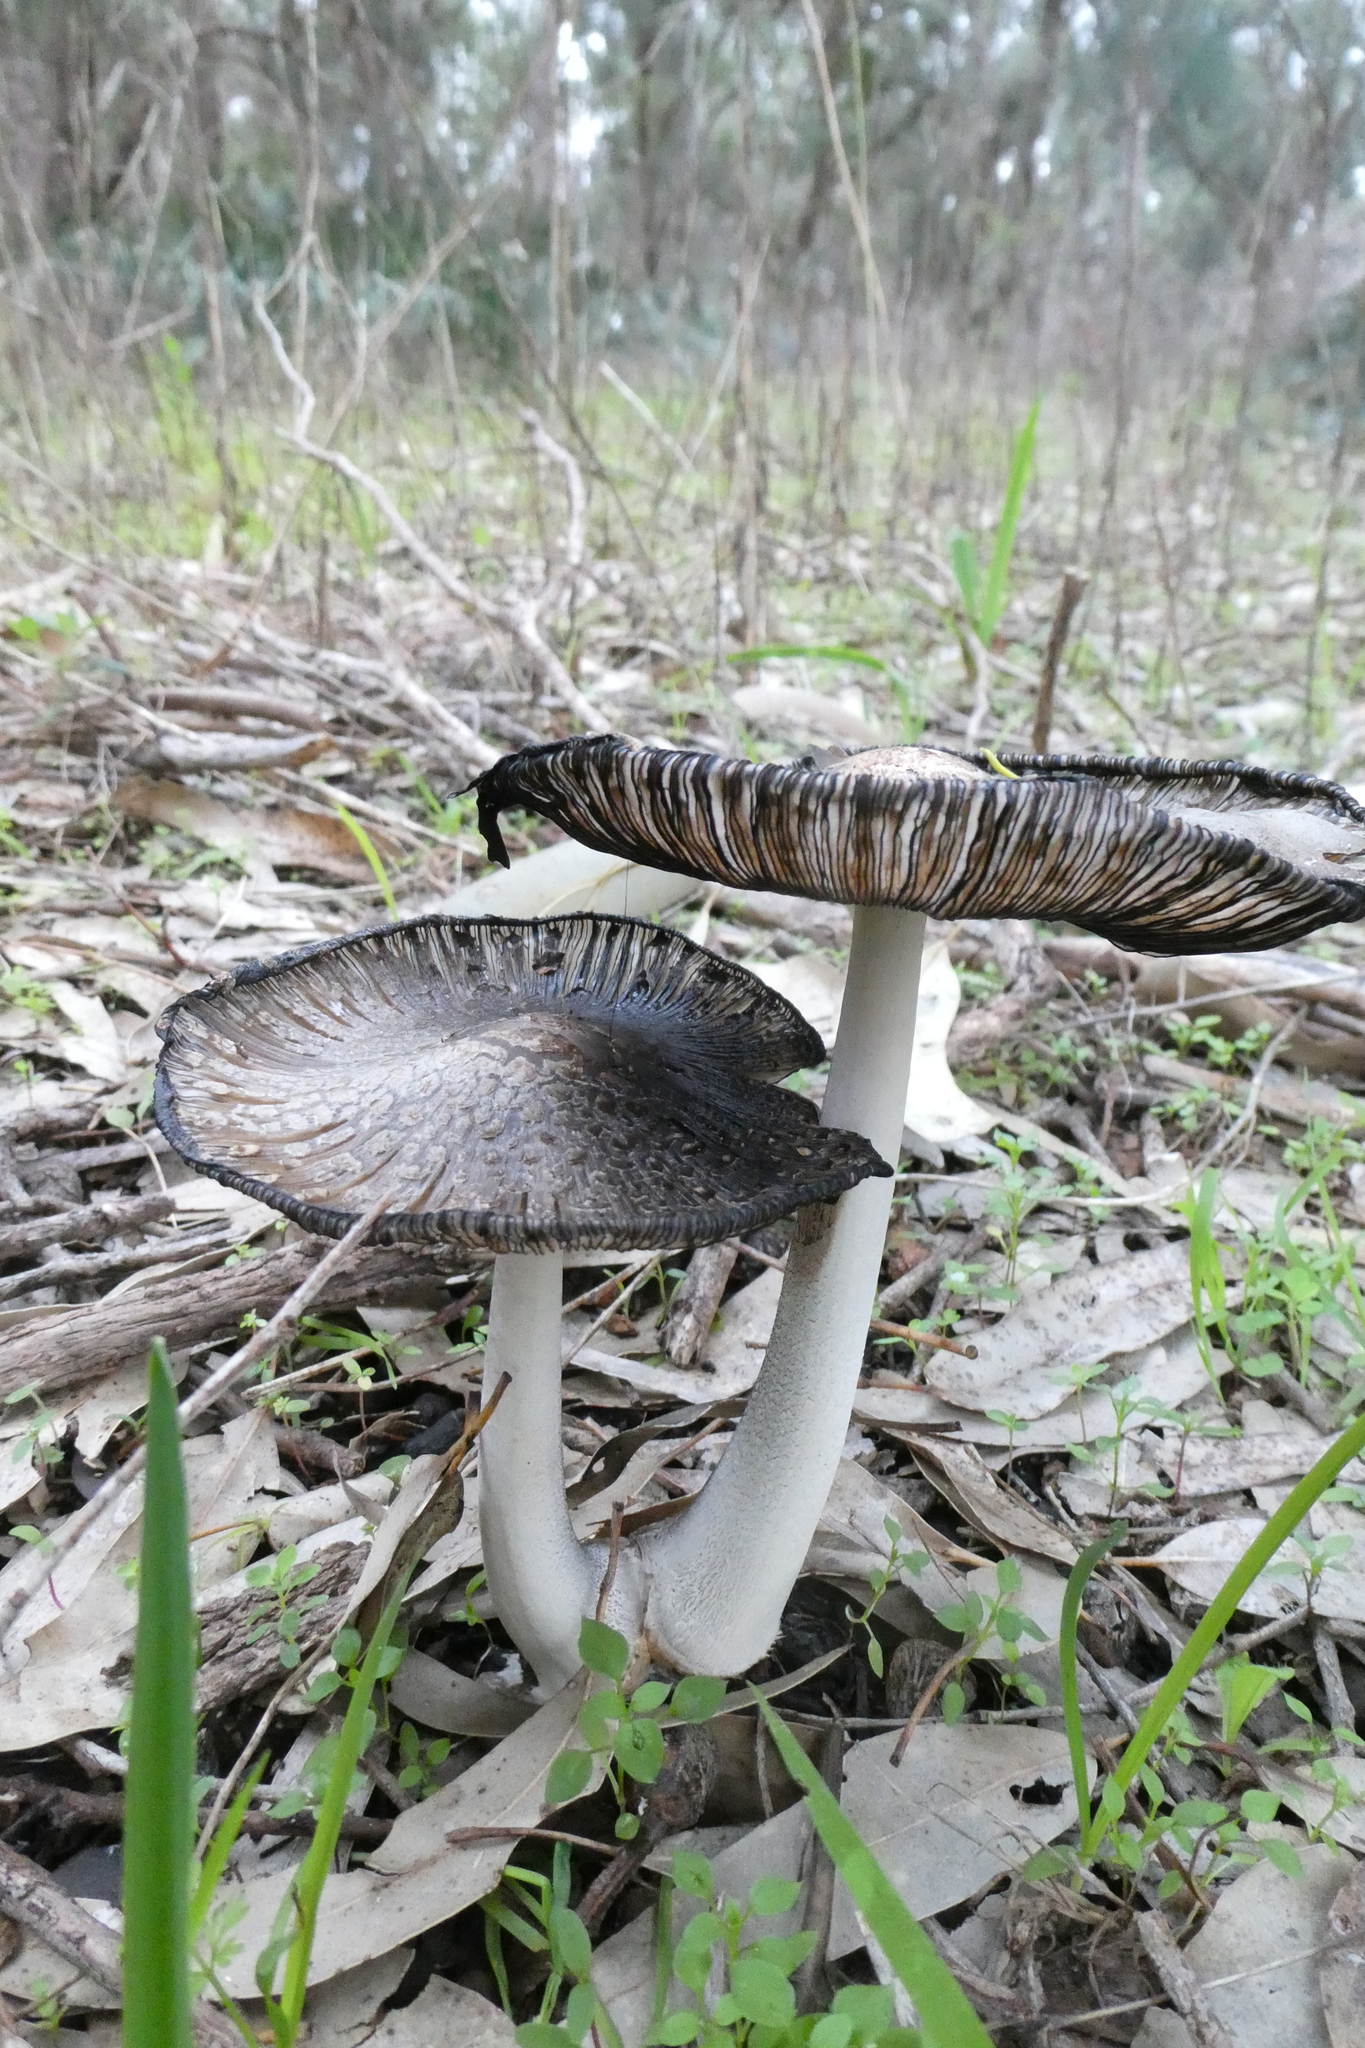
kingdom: Fungi
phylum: Basidiomycota
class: Agaricomycetes
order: Agaricales
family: Psathyrellaceae
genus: Coprinopsis
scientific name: Coprinopsis stangliana
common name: Pied inkcap
